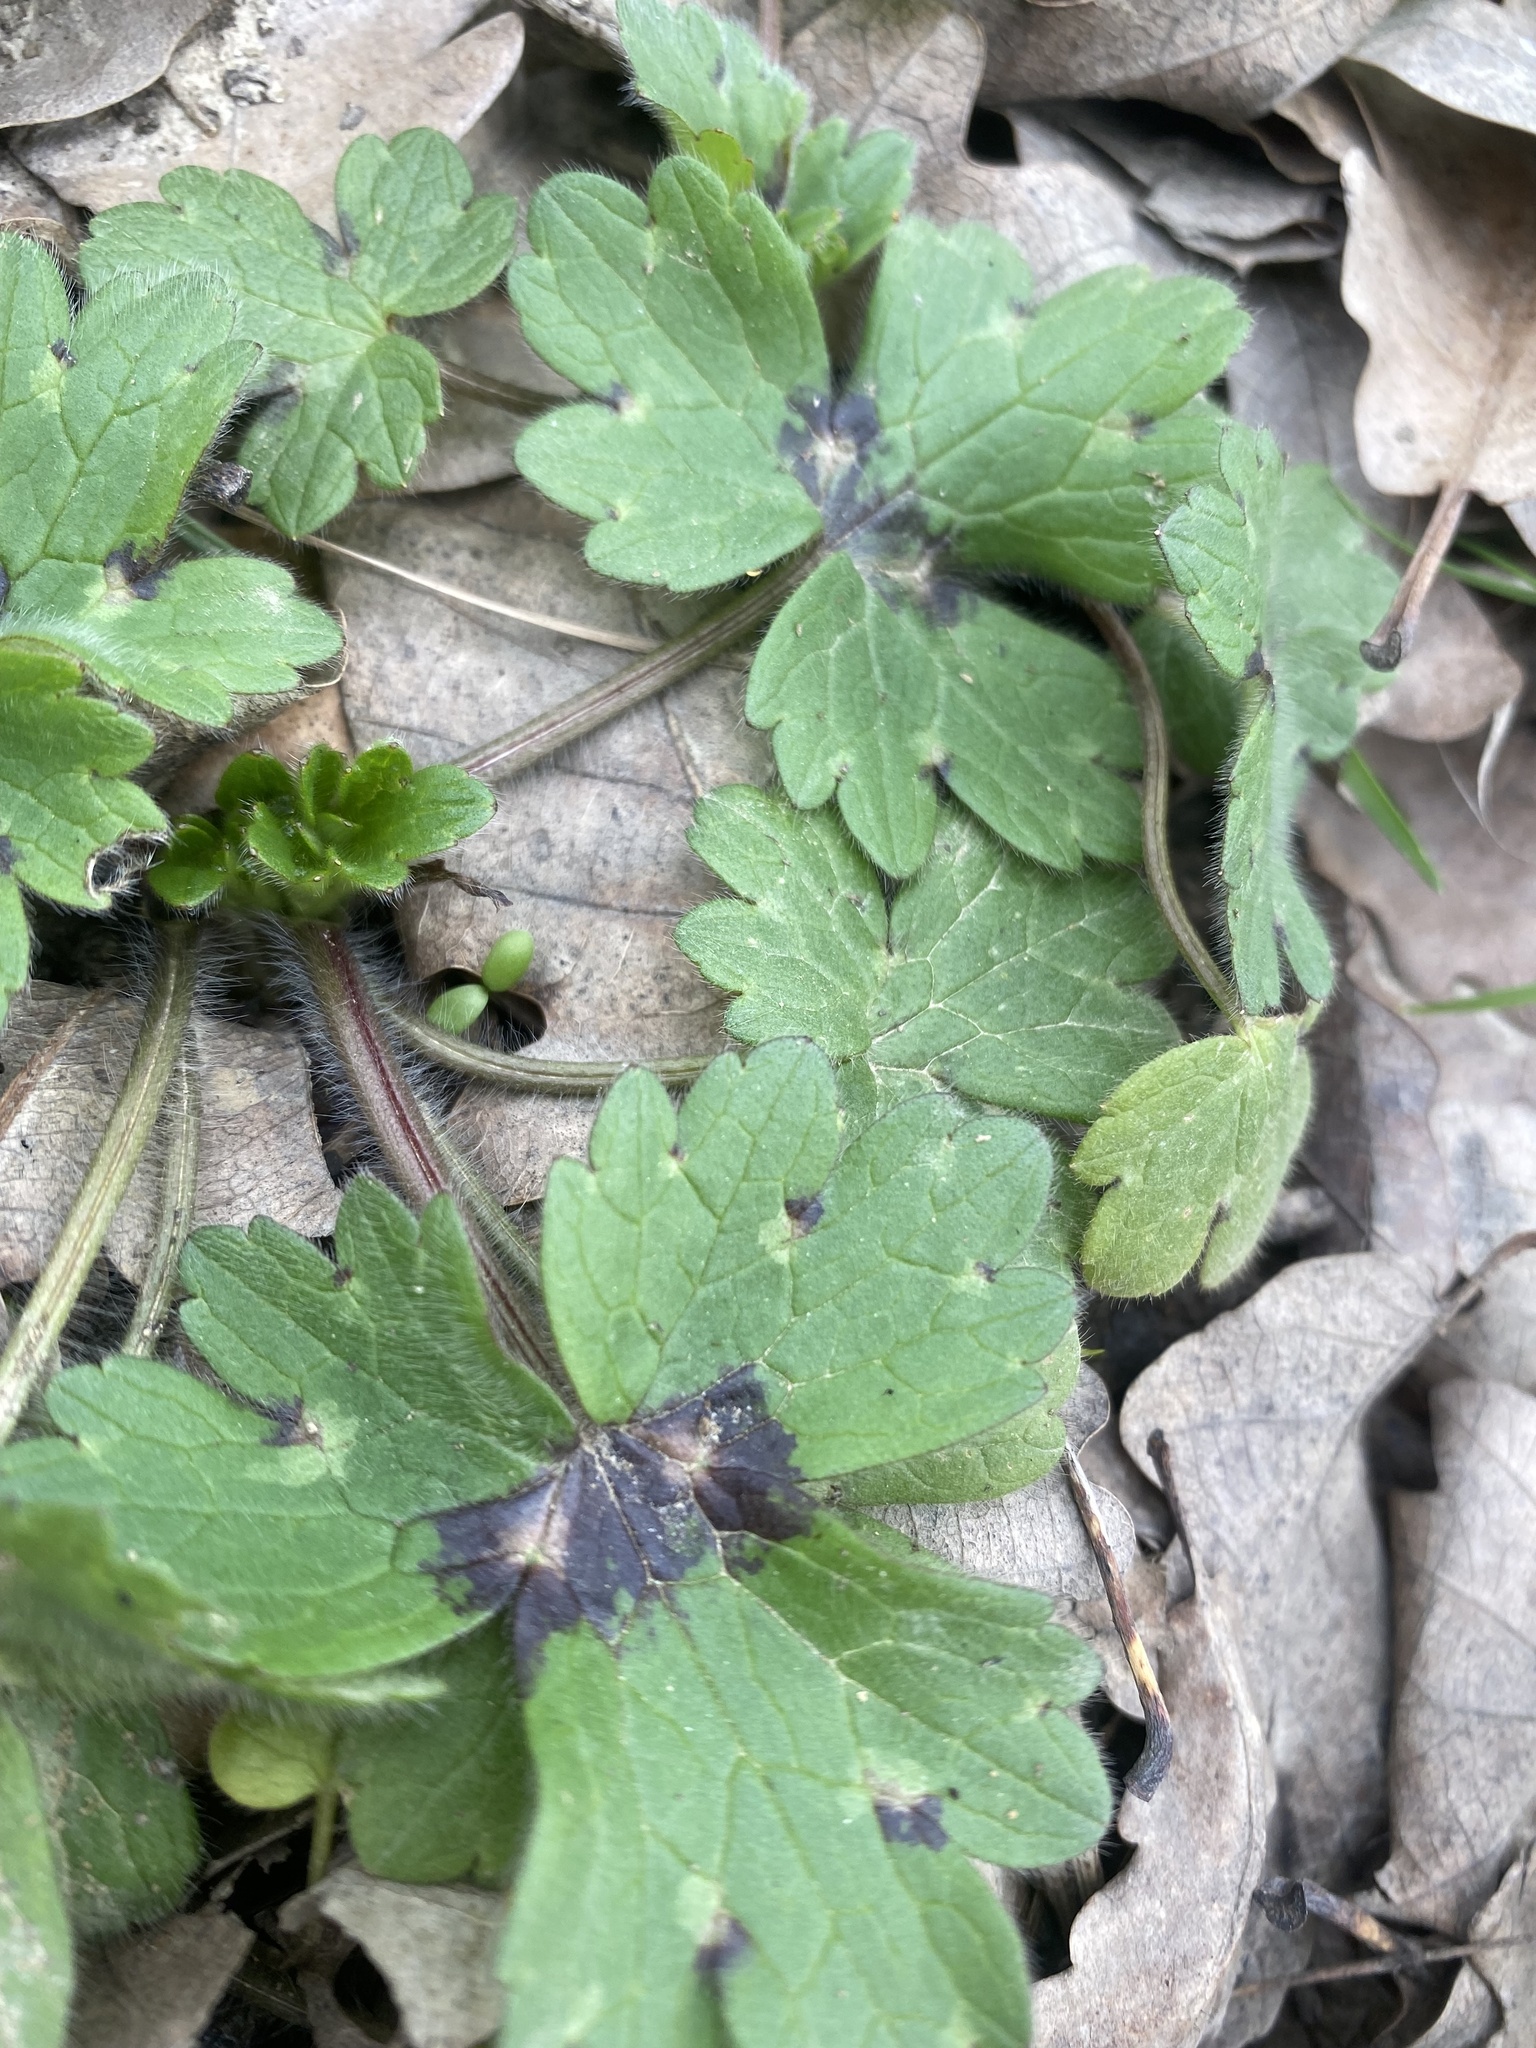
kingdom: Plantae
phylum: Tracheophyta
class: Magnoliopsida
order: Ranunculales
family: Ranunculaceae
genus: Ranunculus
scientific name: Ranunculus constantinopolitanus
